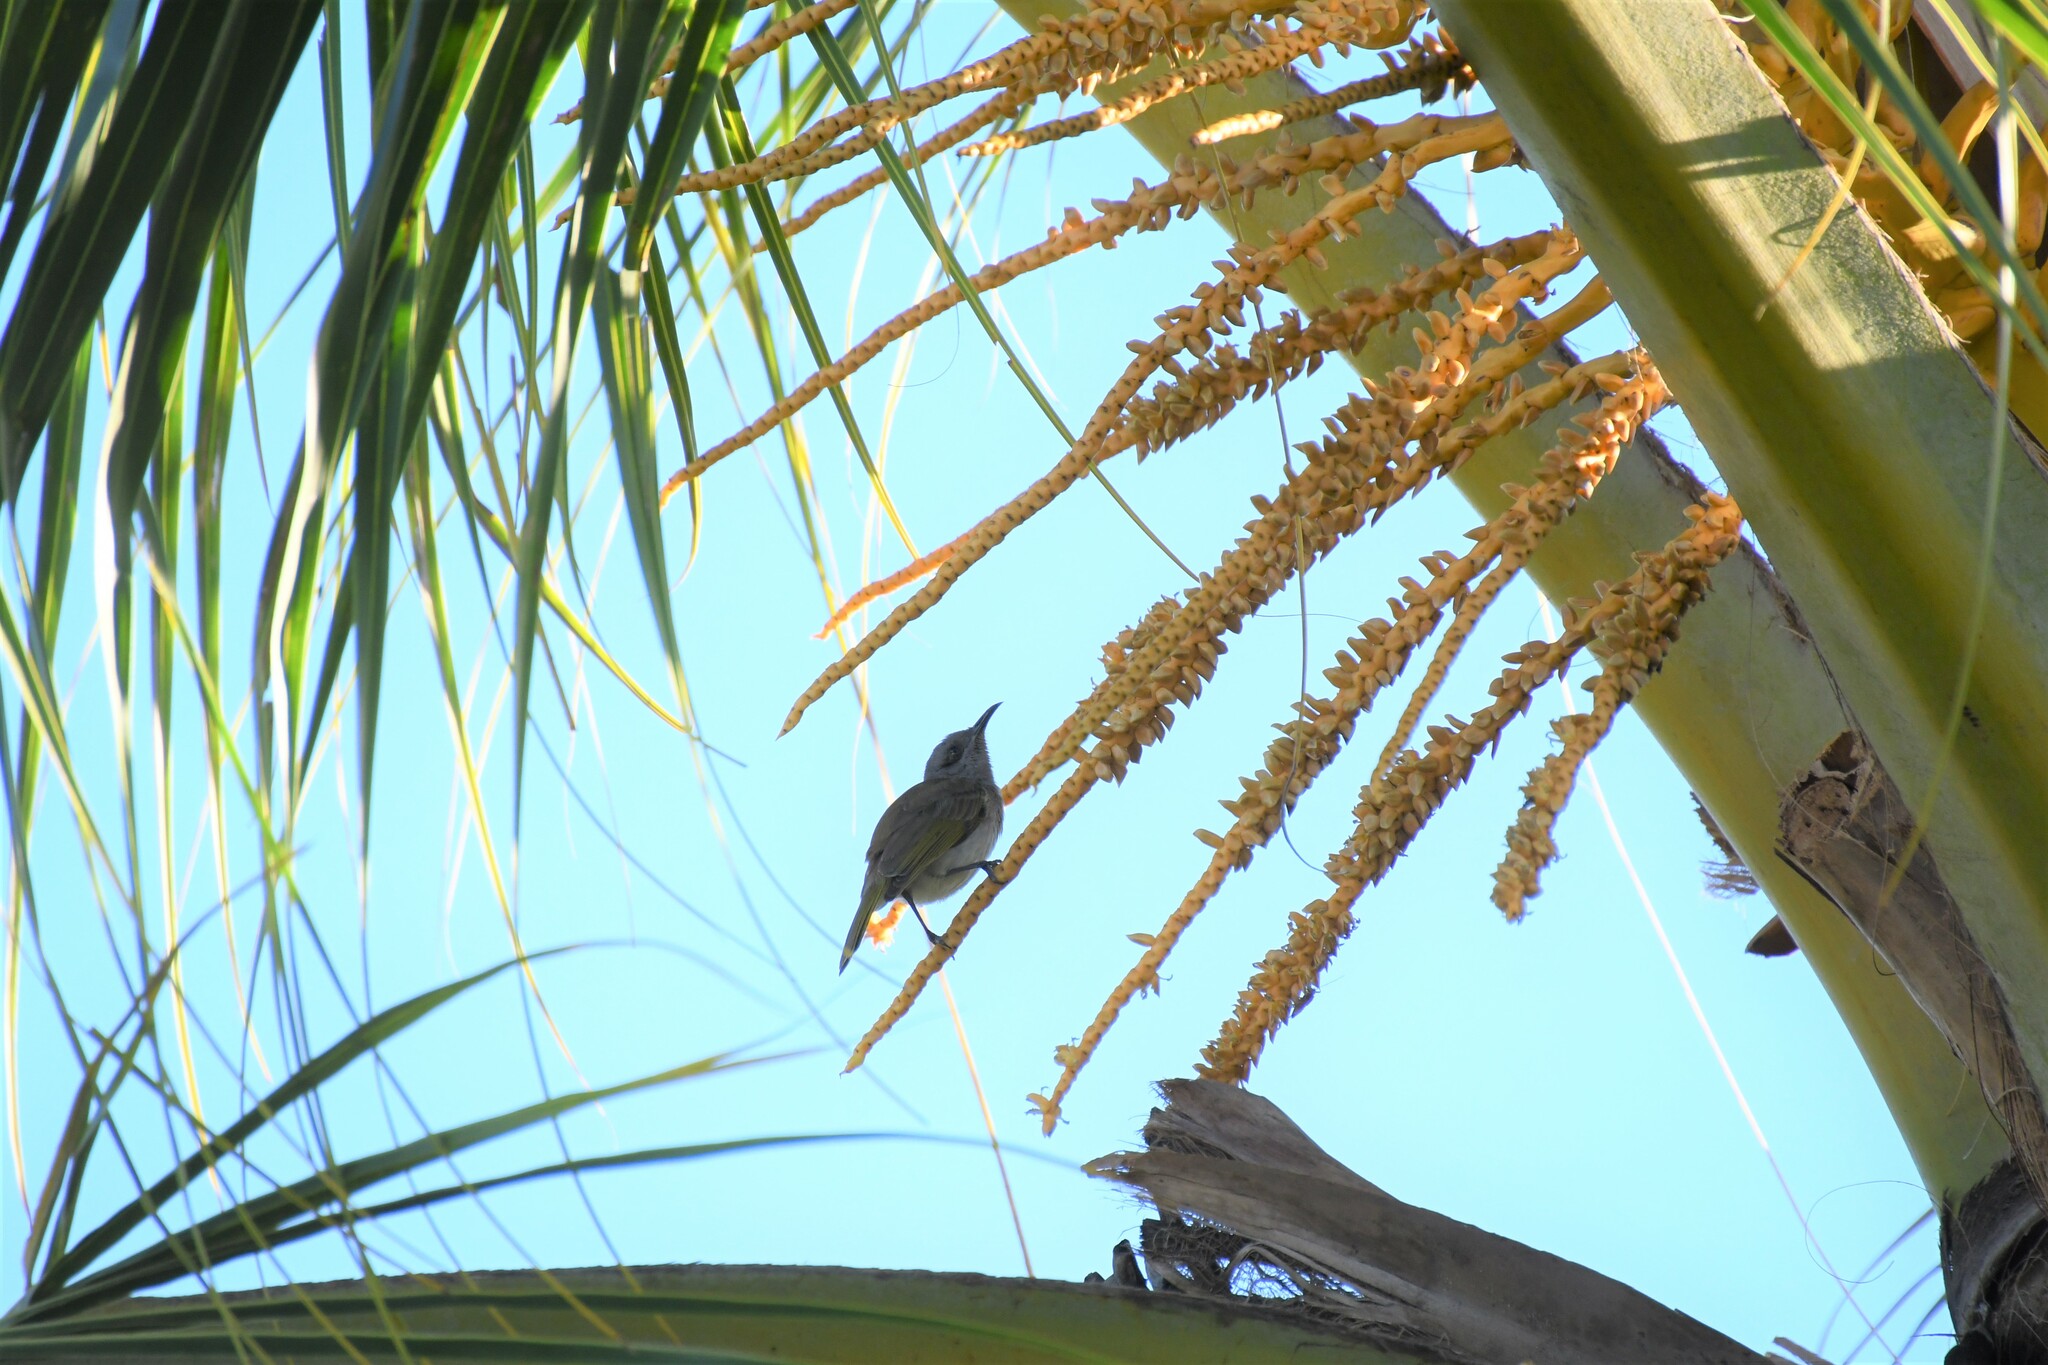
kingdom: Animalia
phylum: Chordata
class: Aves
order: Passeriformes
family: Meliphagidae
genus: Lichmera
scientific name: Lichmera indistincta
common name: Brown honeyeater
